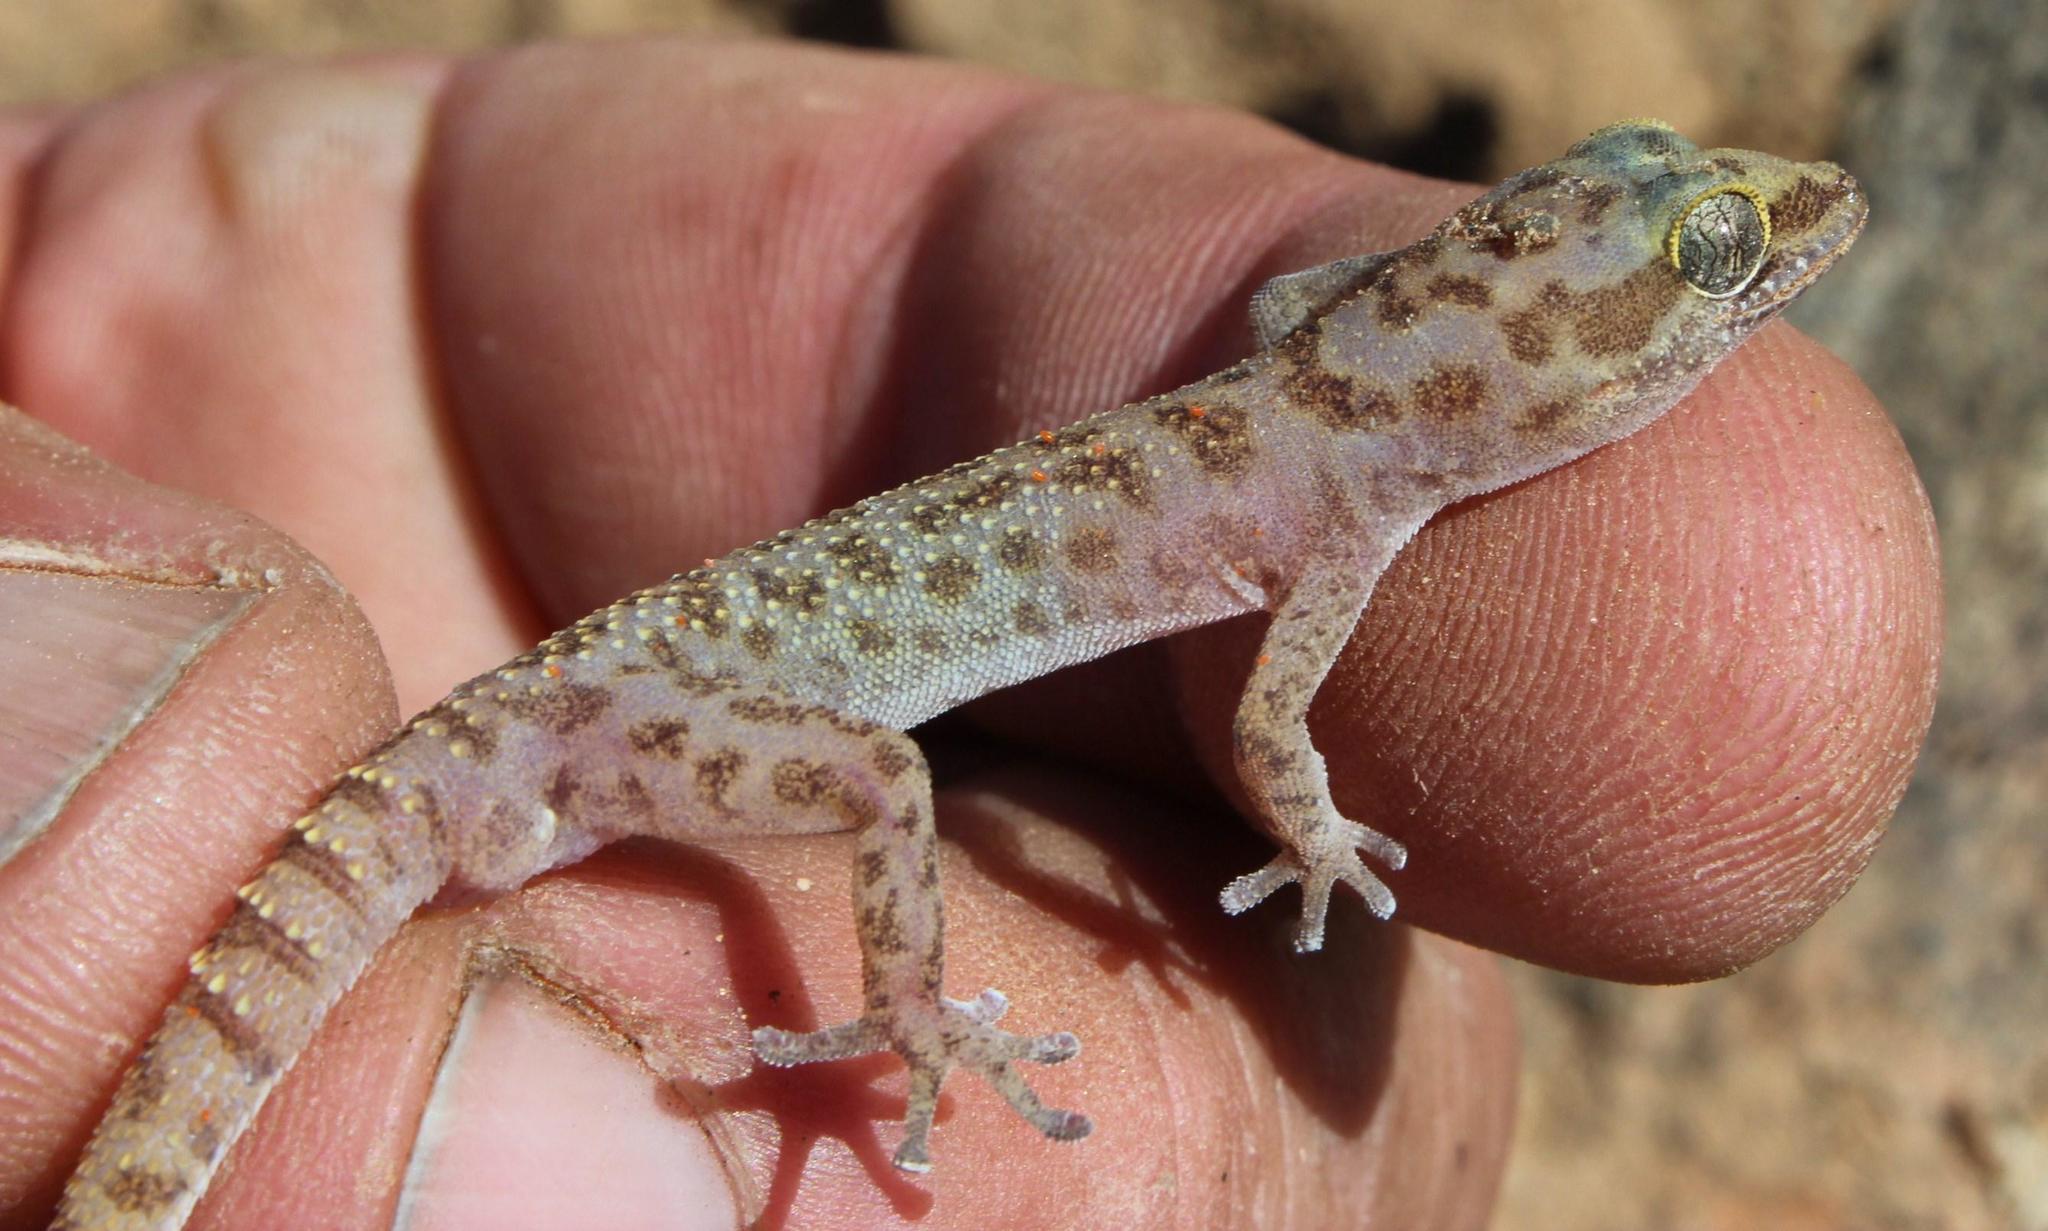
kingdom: Animalia
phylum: Chordata
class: Squamata
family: Gekkonidae
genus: Pachydactylus
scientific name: Pachydactylus carinatus
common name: Richtersveld gecko
